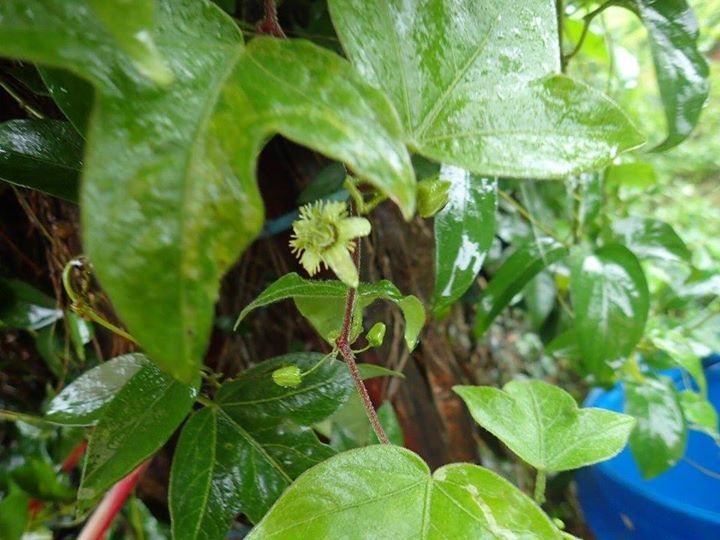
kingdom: Plantae
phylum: Tracheophyta
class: Magnoliopsida
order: Malpighiales
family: Passifloraceae
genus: Passiflora
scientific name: Passiflora suberosa
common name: Wild passionfruit
